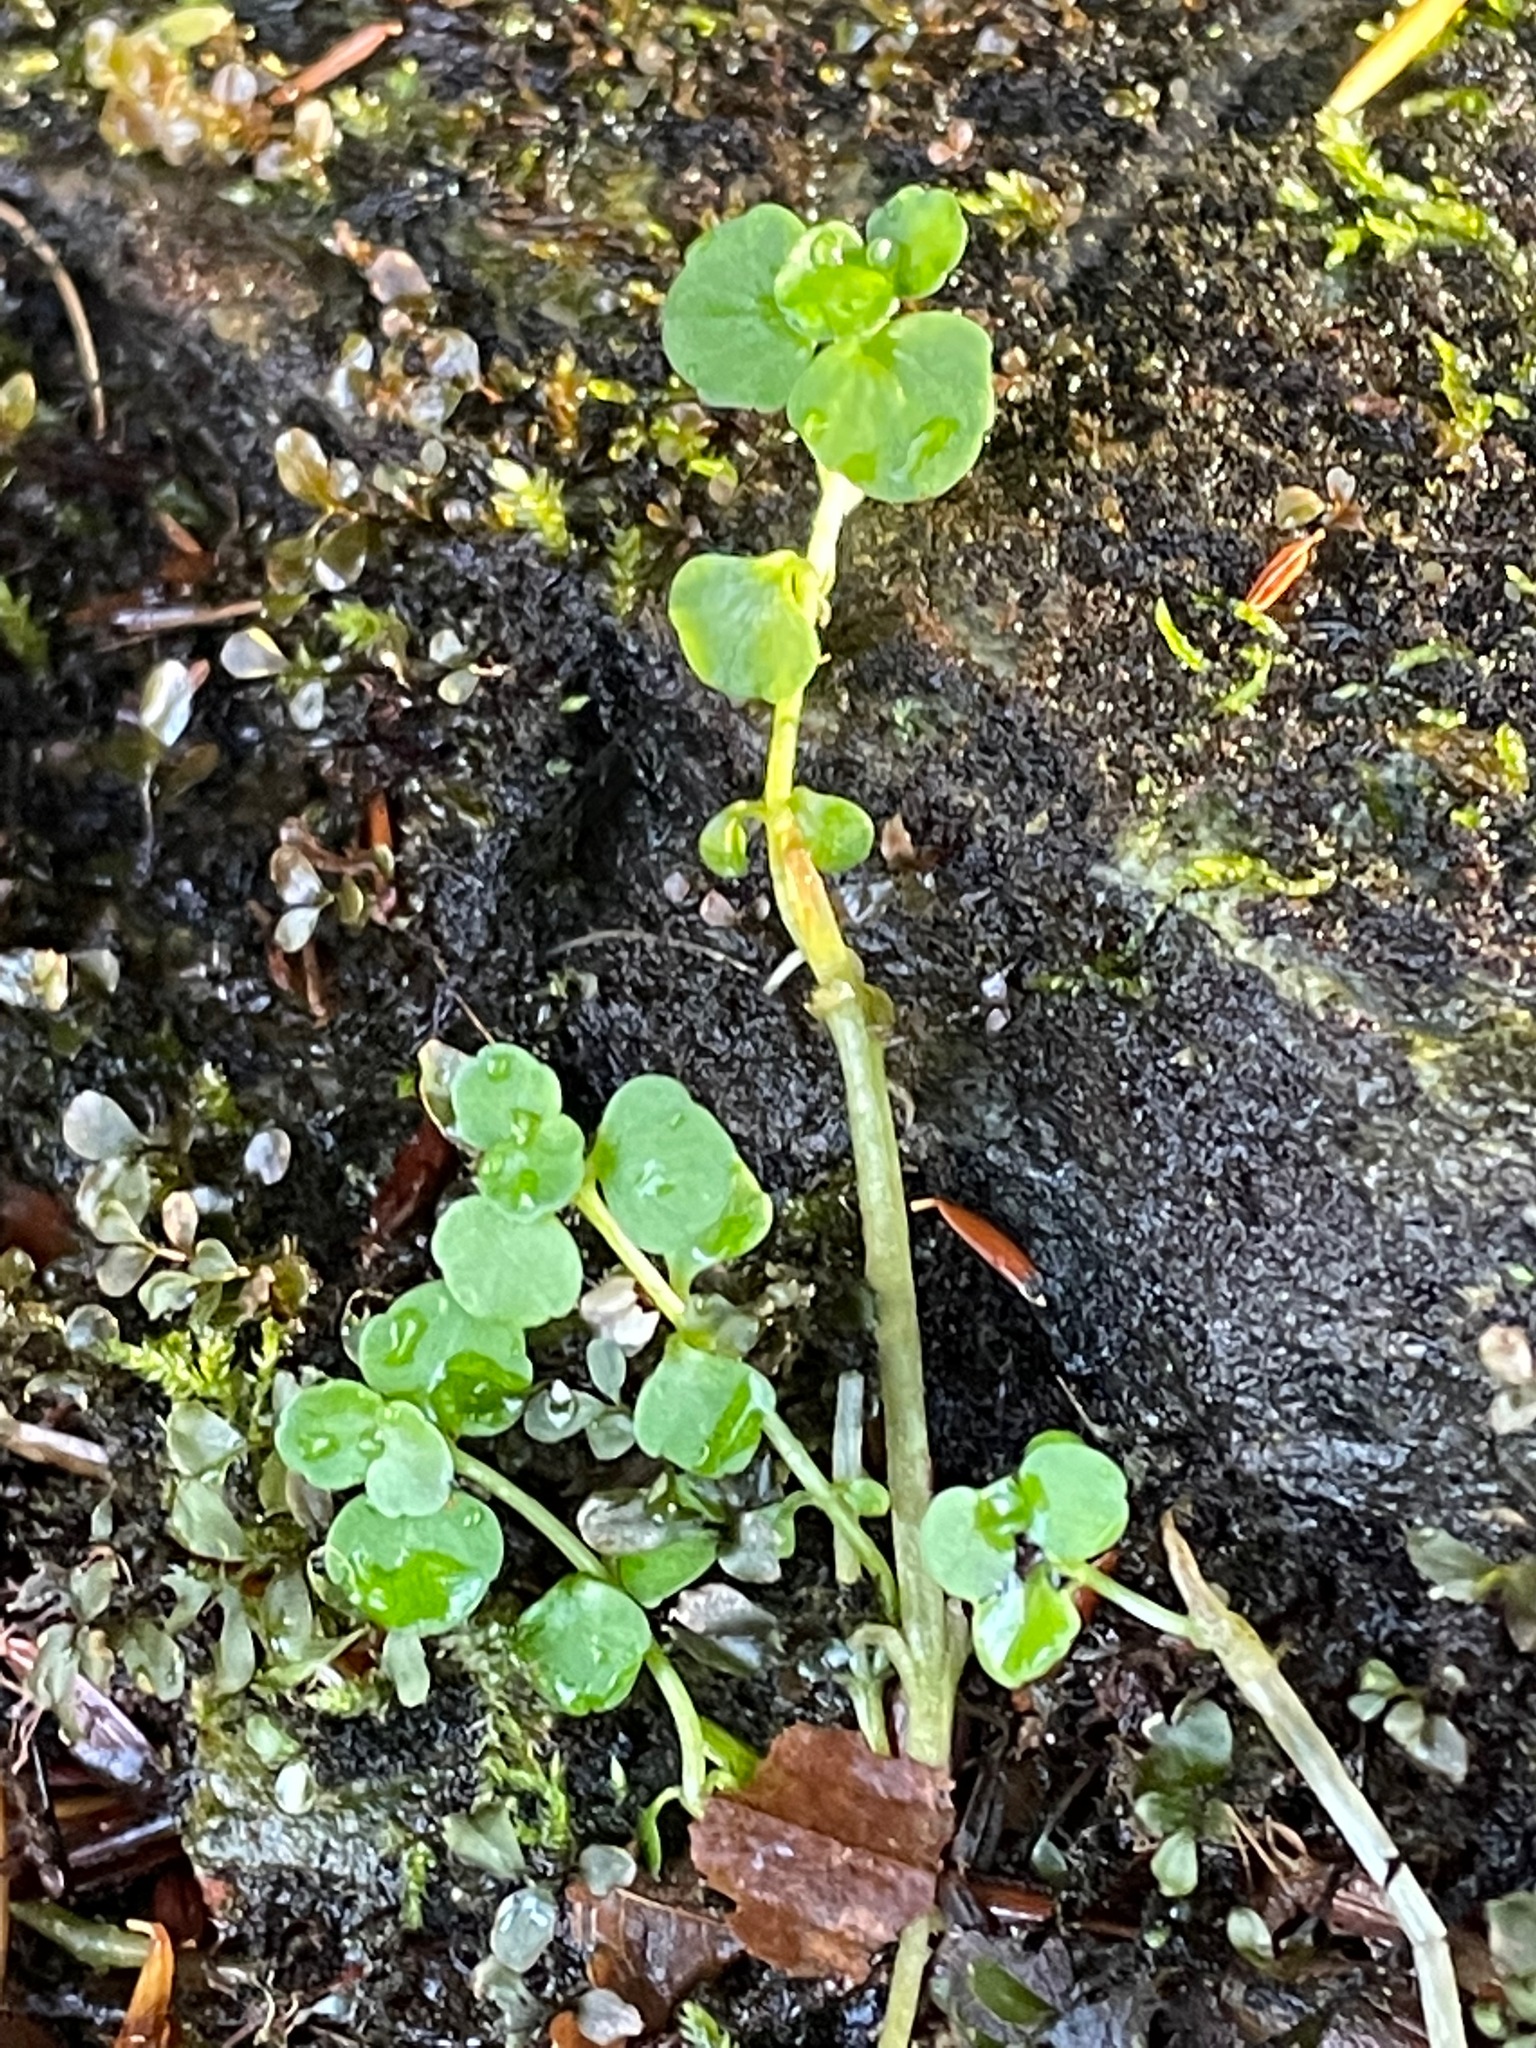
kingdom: Plantae
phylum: Tracheophyta
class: Magnoliopsida
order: Saxifragales
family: Saxifragaceae
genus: Chrysosplenium
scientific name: Chrysosplenium americanum
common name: American golden-saxifrage
